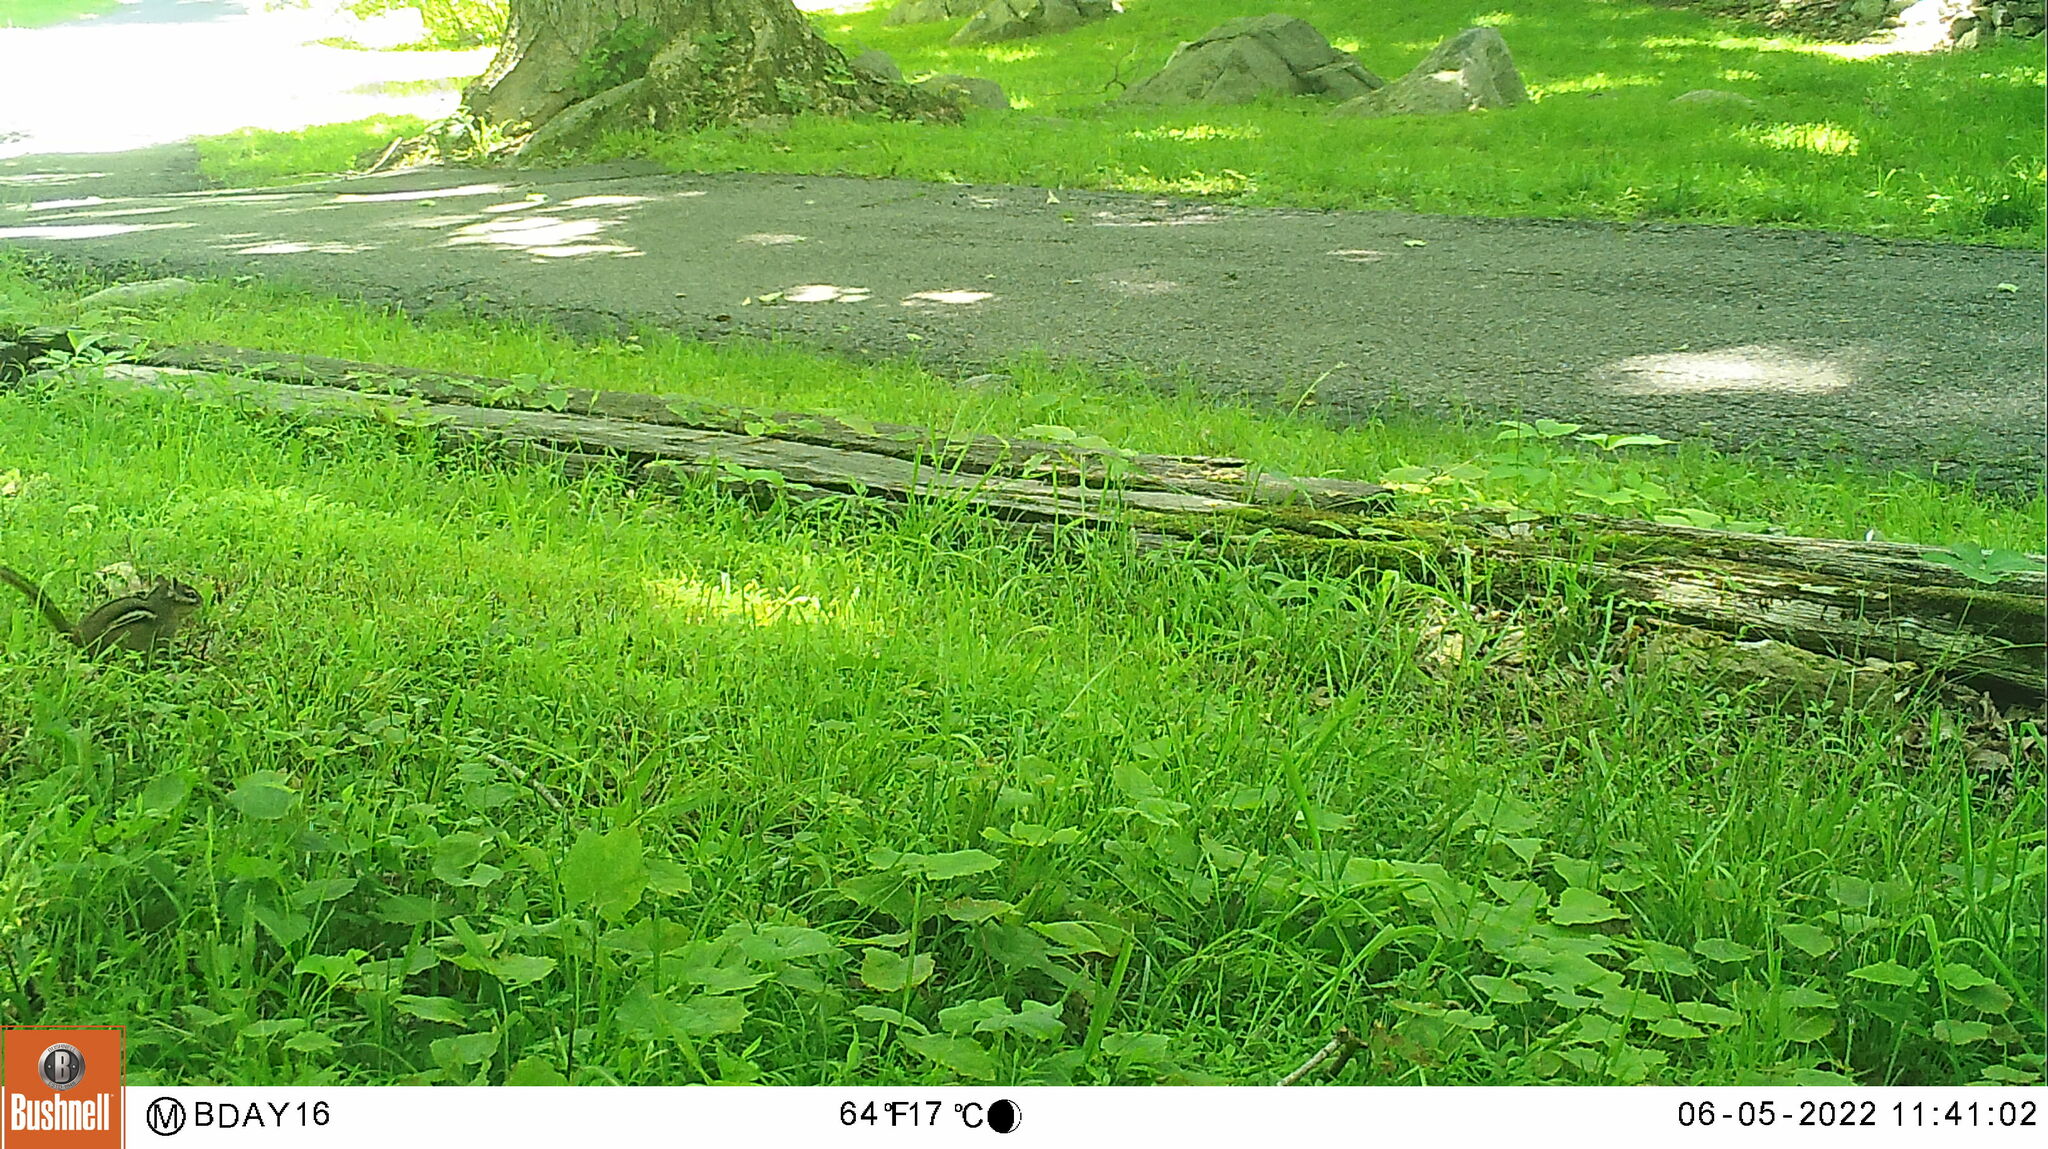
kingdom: Animalia
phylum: Chordata
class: Mammalia
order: Rodentia
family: Sciuridae
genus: Tamias
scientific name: Tamias striatus
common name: Eastern chipmunk
